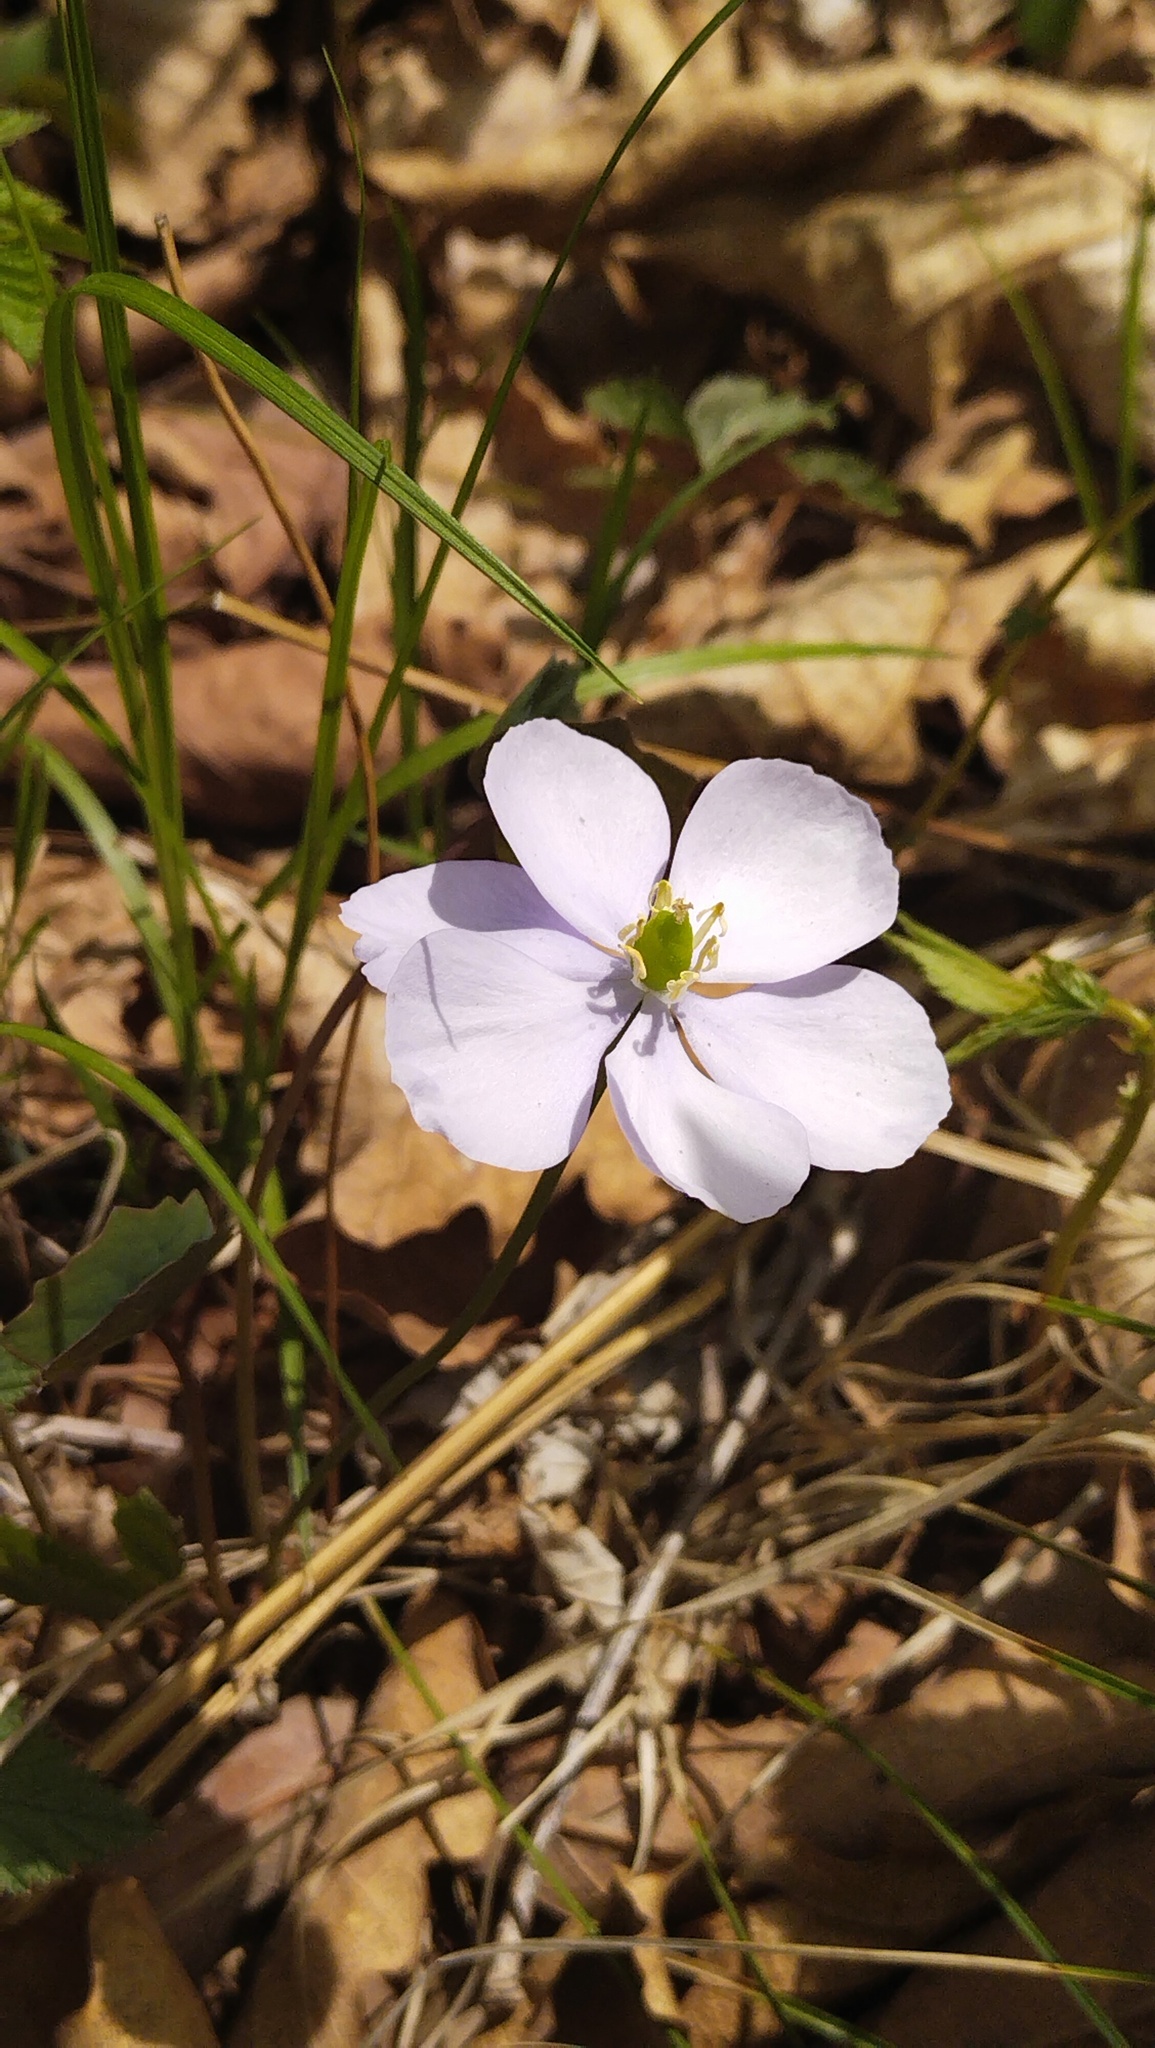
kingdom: Plantae
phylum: Tracheophyta
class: Magnoliopsida
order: Ranunculales
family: Berberidaceae
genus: Plagiorhegma
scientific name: Plagiorhegma dubium
